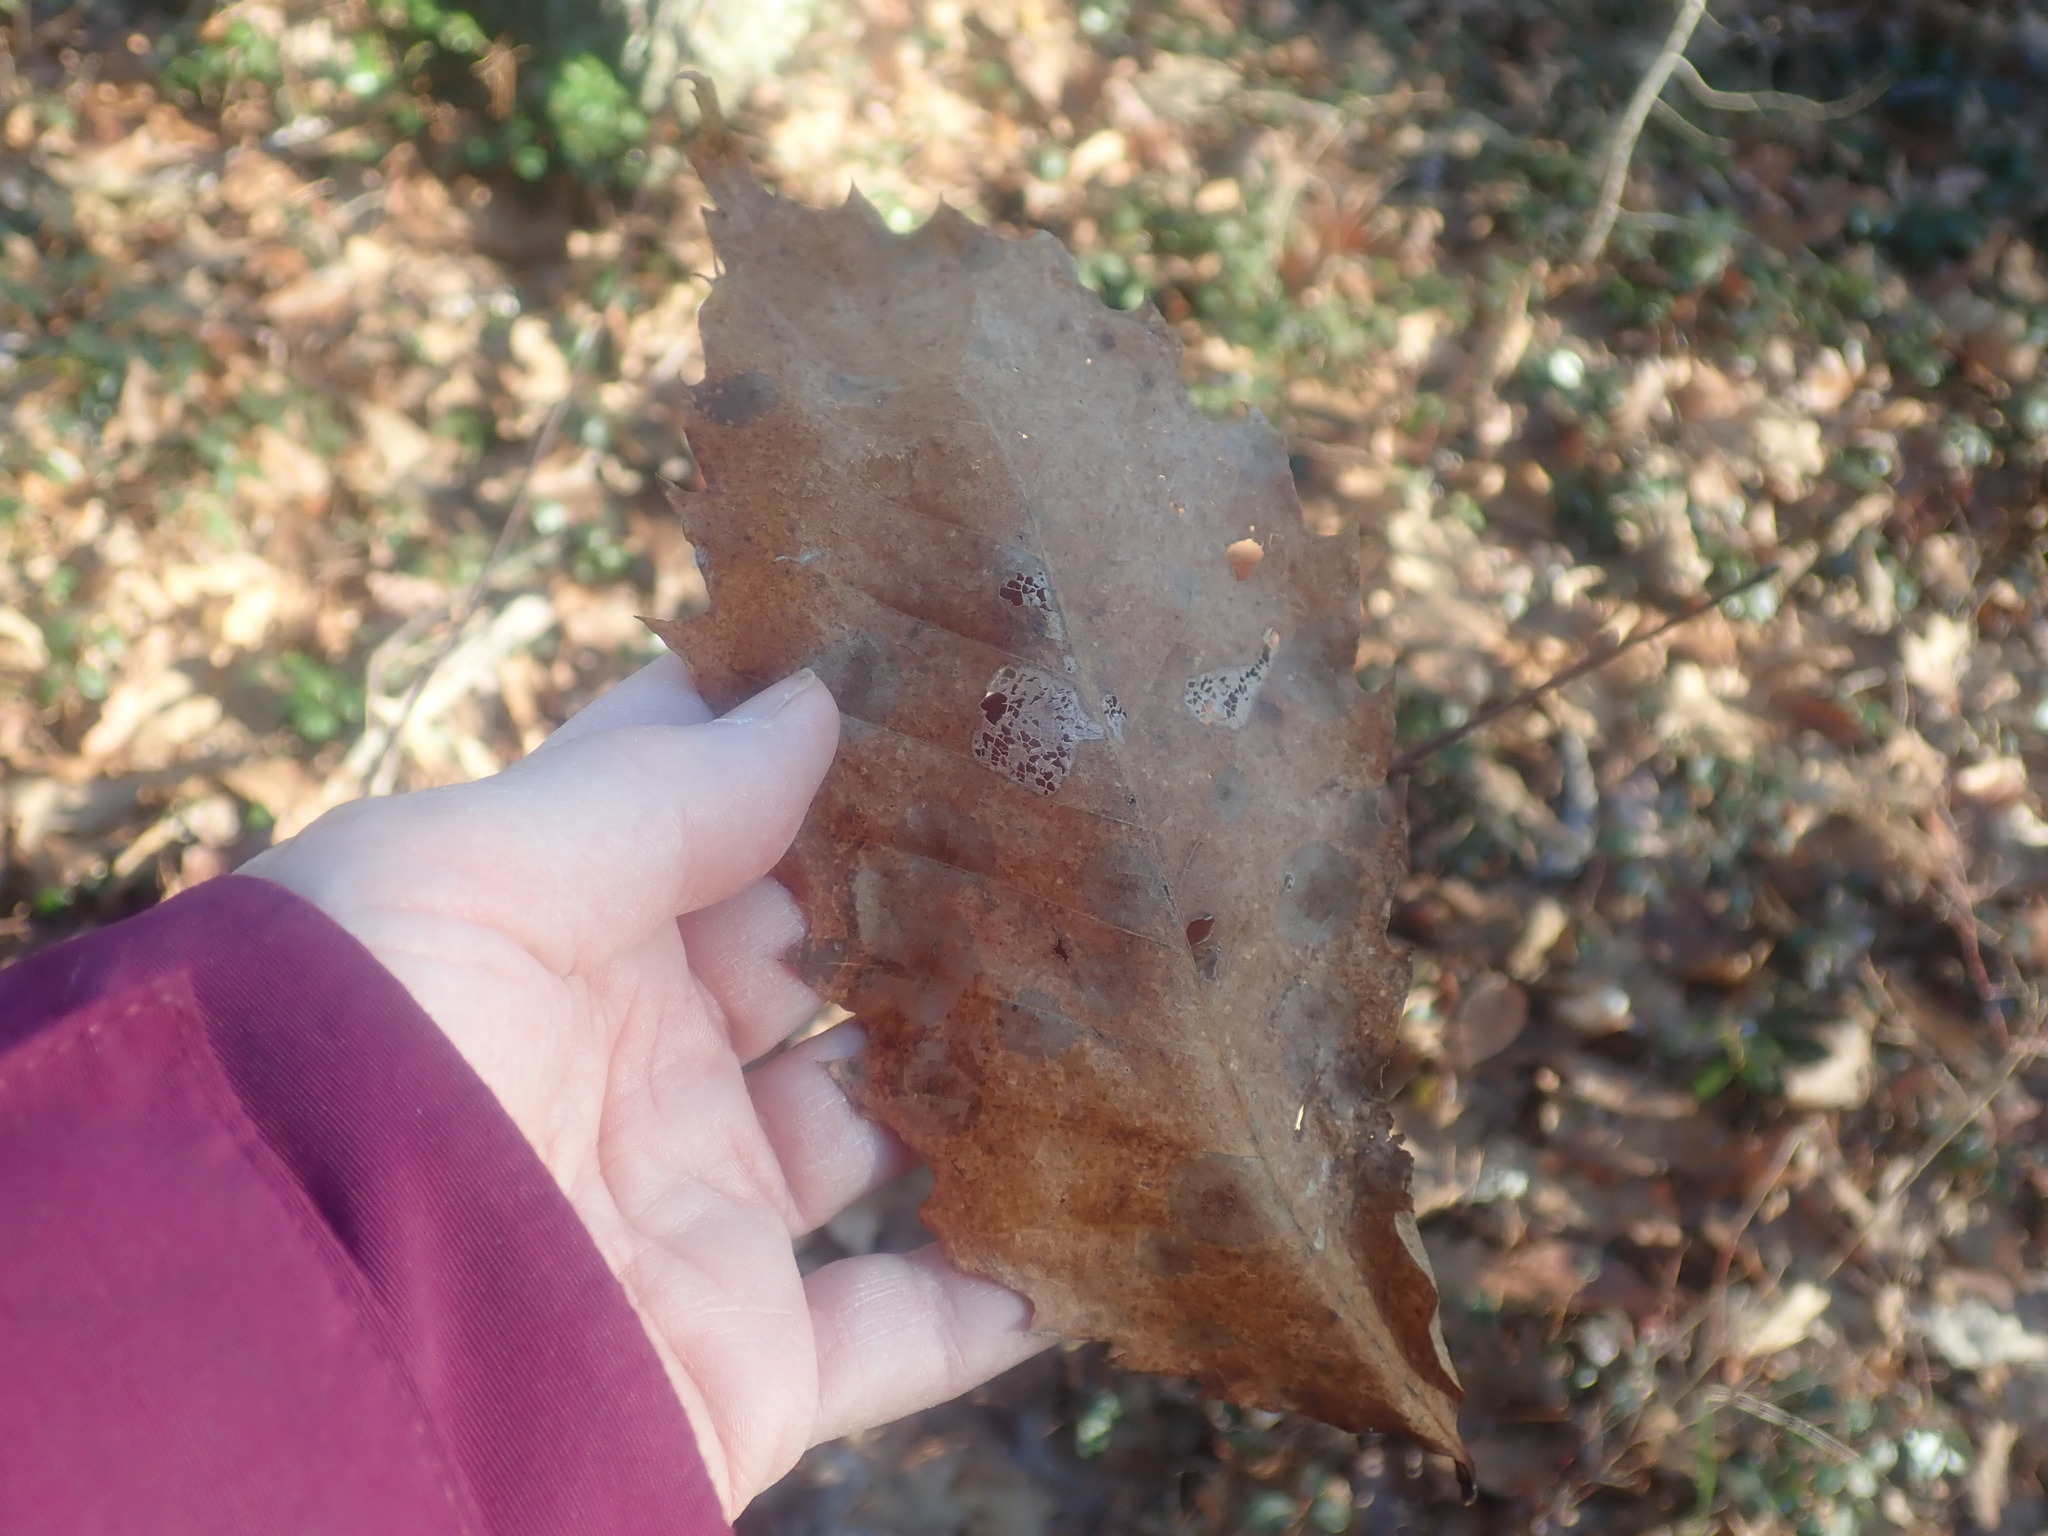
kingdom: Plantae
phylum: Tracheophyta
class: Magnoliopsida
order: Fagales
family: Fagaceae
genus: Castanea
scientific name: Castanea dentata
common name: American chestnut
